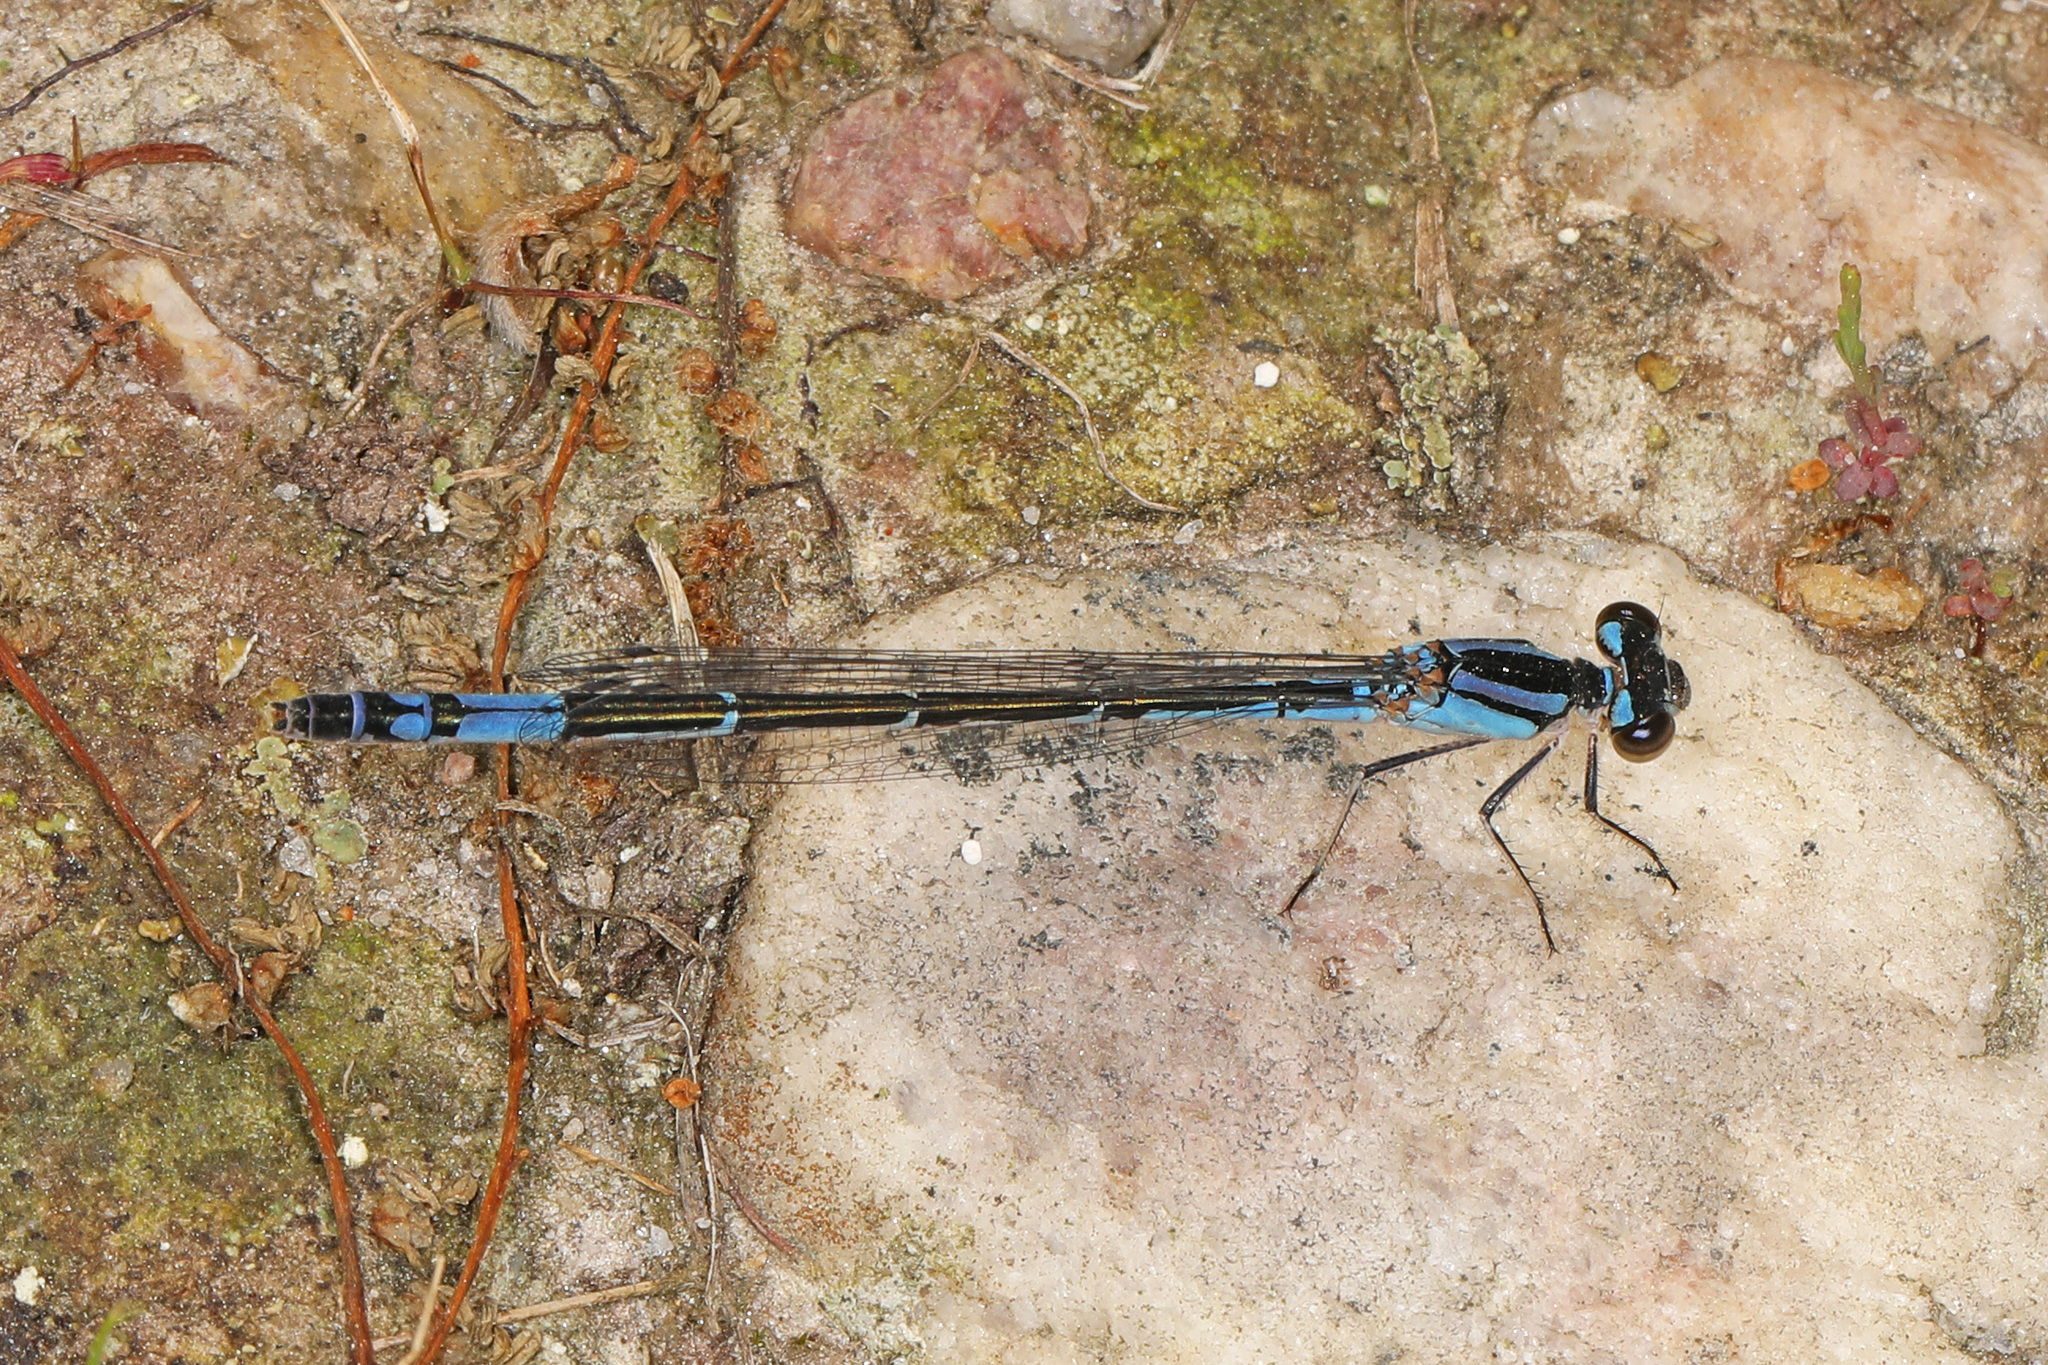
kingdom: Animalia
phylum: Arthropoda
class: Insecta
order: Odonata
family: Coenagrionidae
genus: Enallagma
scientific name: Enallagma aspersum
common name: Azure bluet
